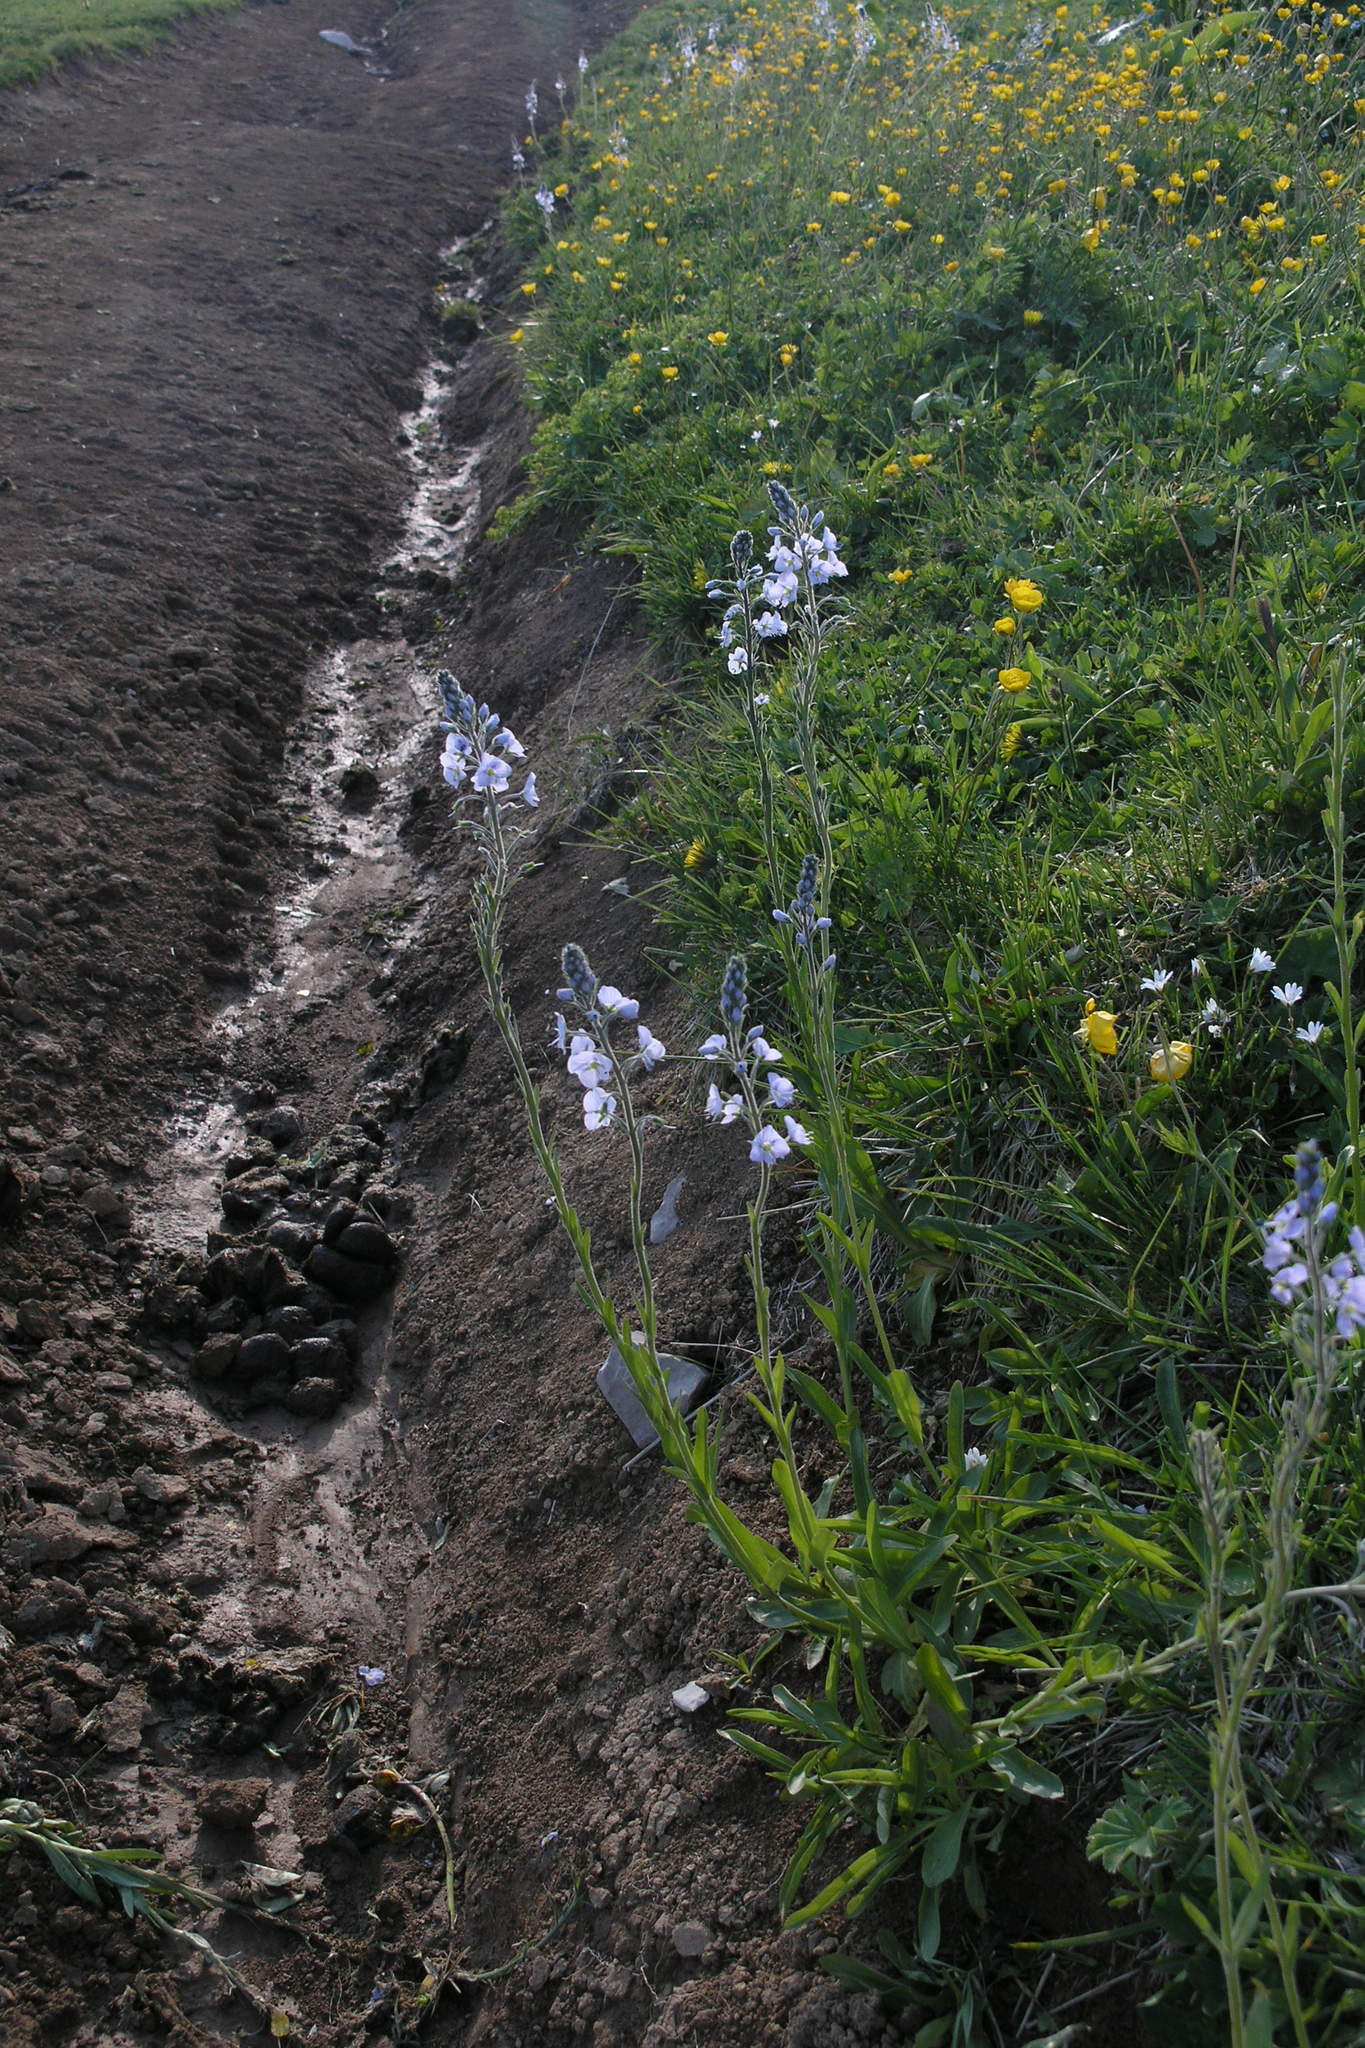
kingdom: Plantae
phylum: Tracheophyta
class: Magnoliopsida
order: Lamiales
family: Plantaginaceae
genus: Veronica
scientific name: Veronica gentianoides
